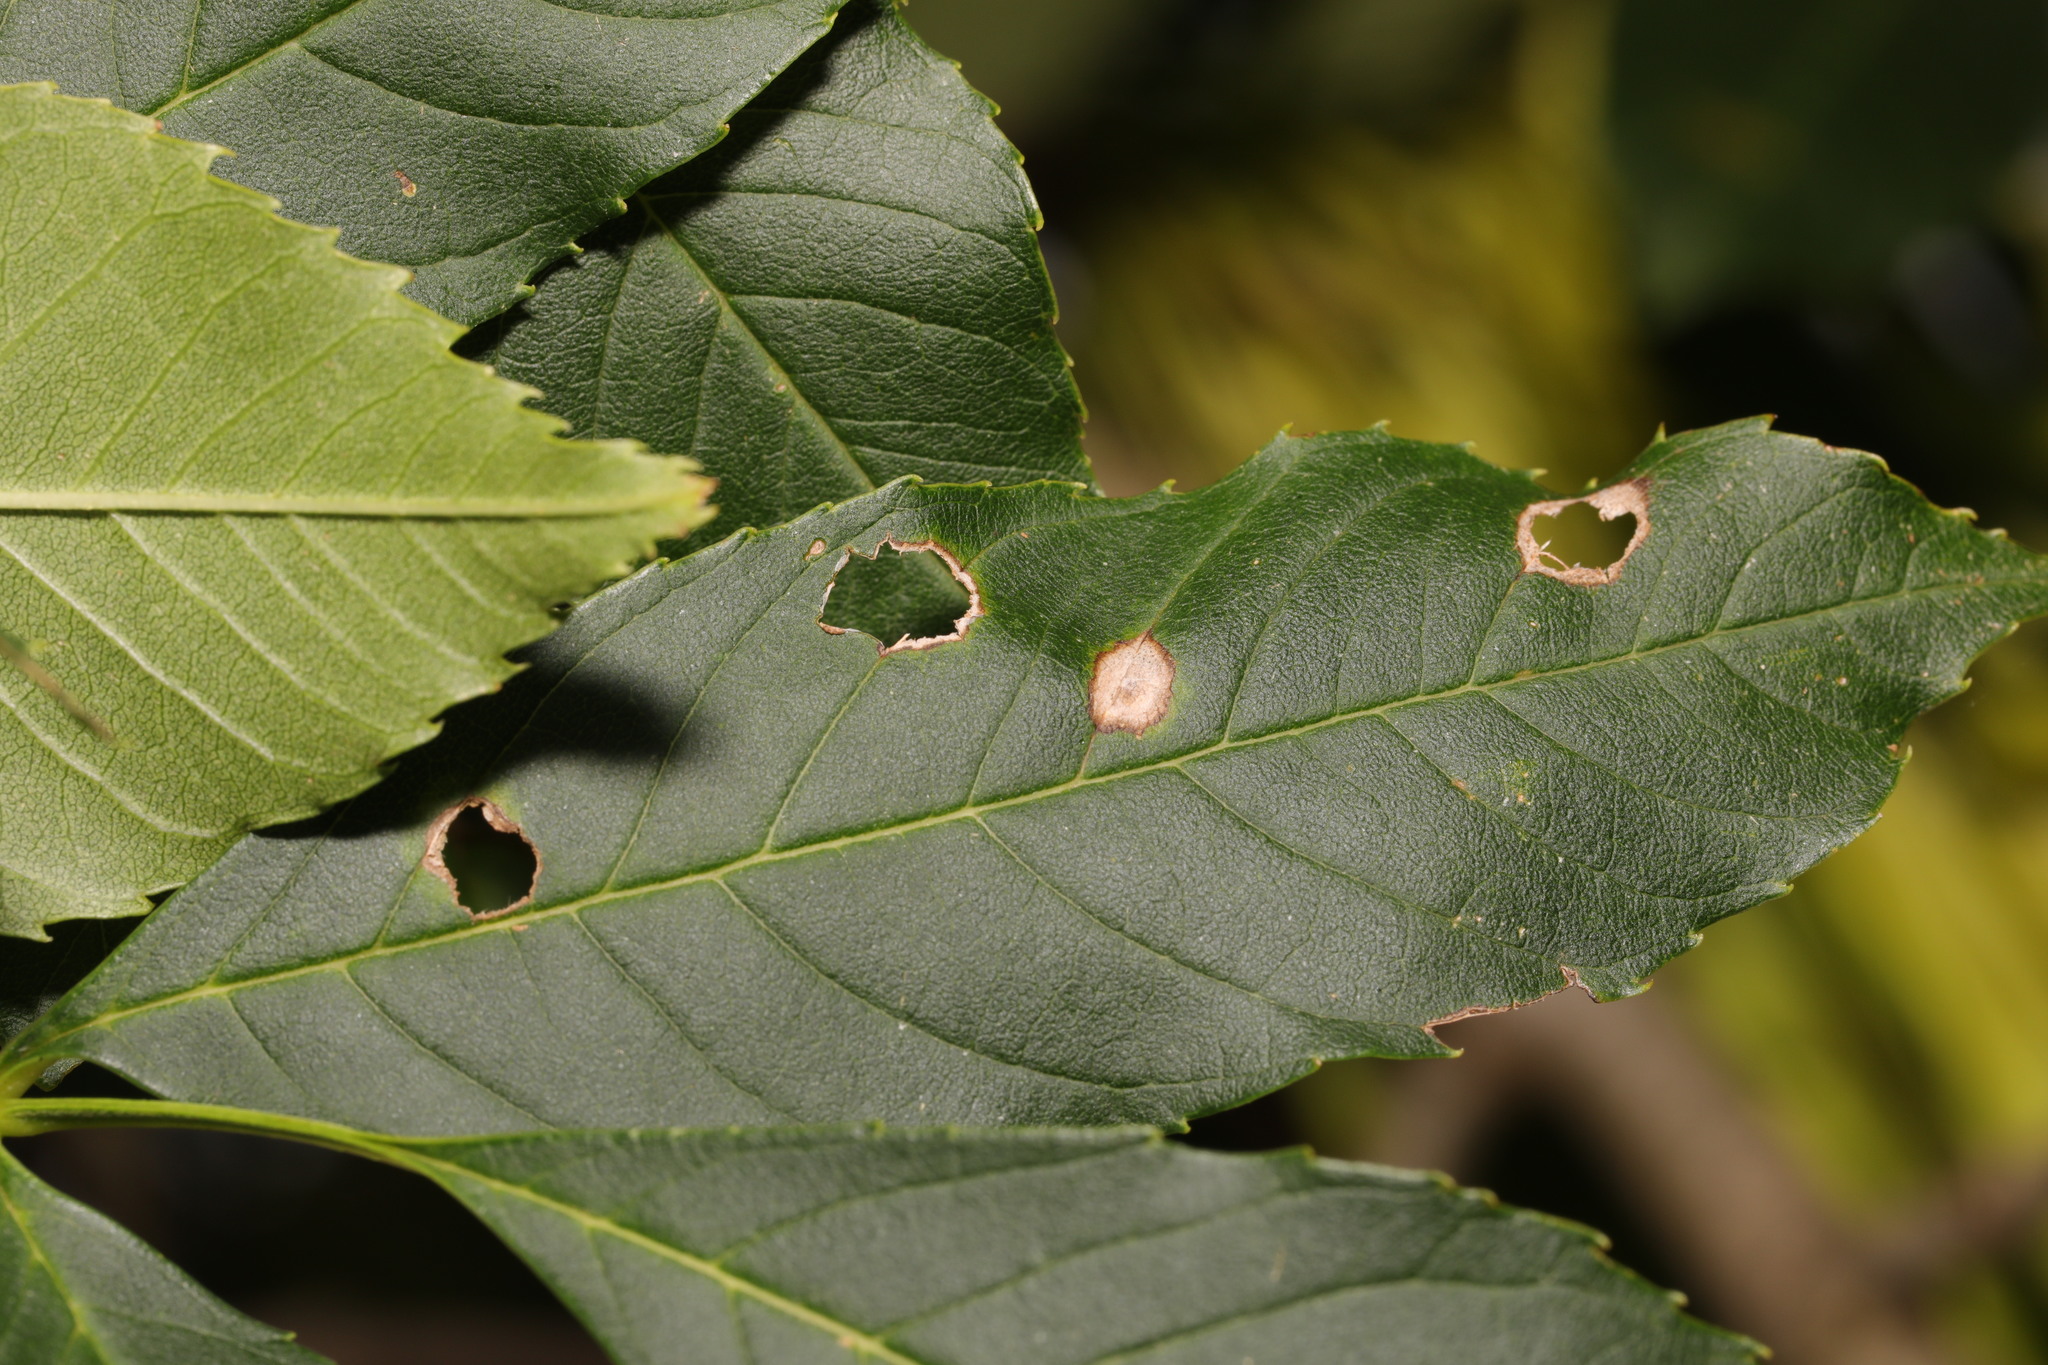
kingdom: Animalia
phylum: Arthropoda
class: Insecta
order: Diptera
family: Cecidomyiidae
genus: Dasineura
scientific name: Dasineura fraxinea
